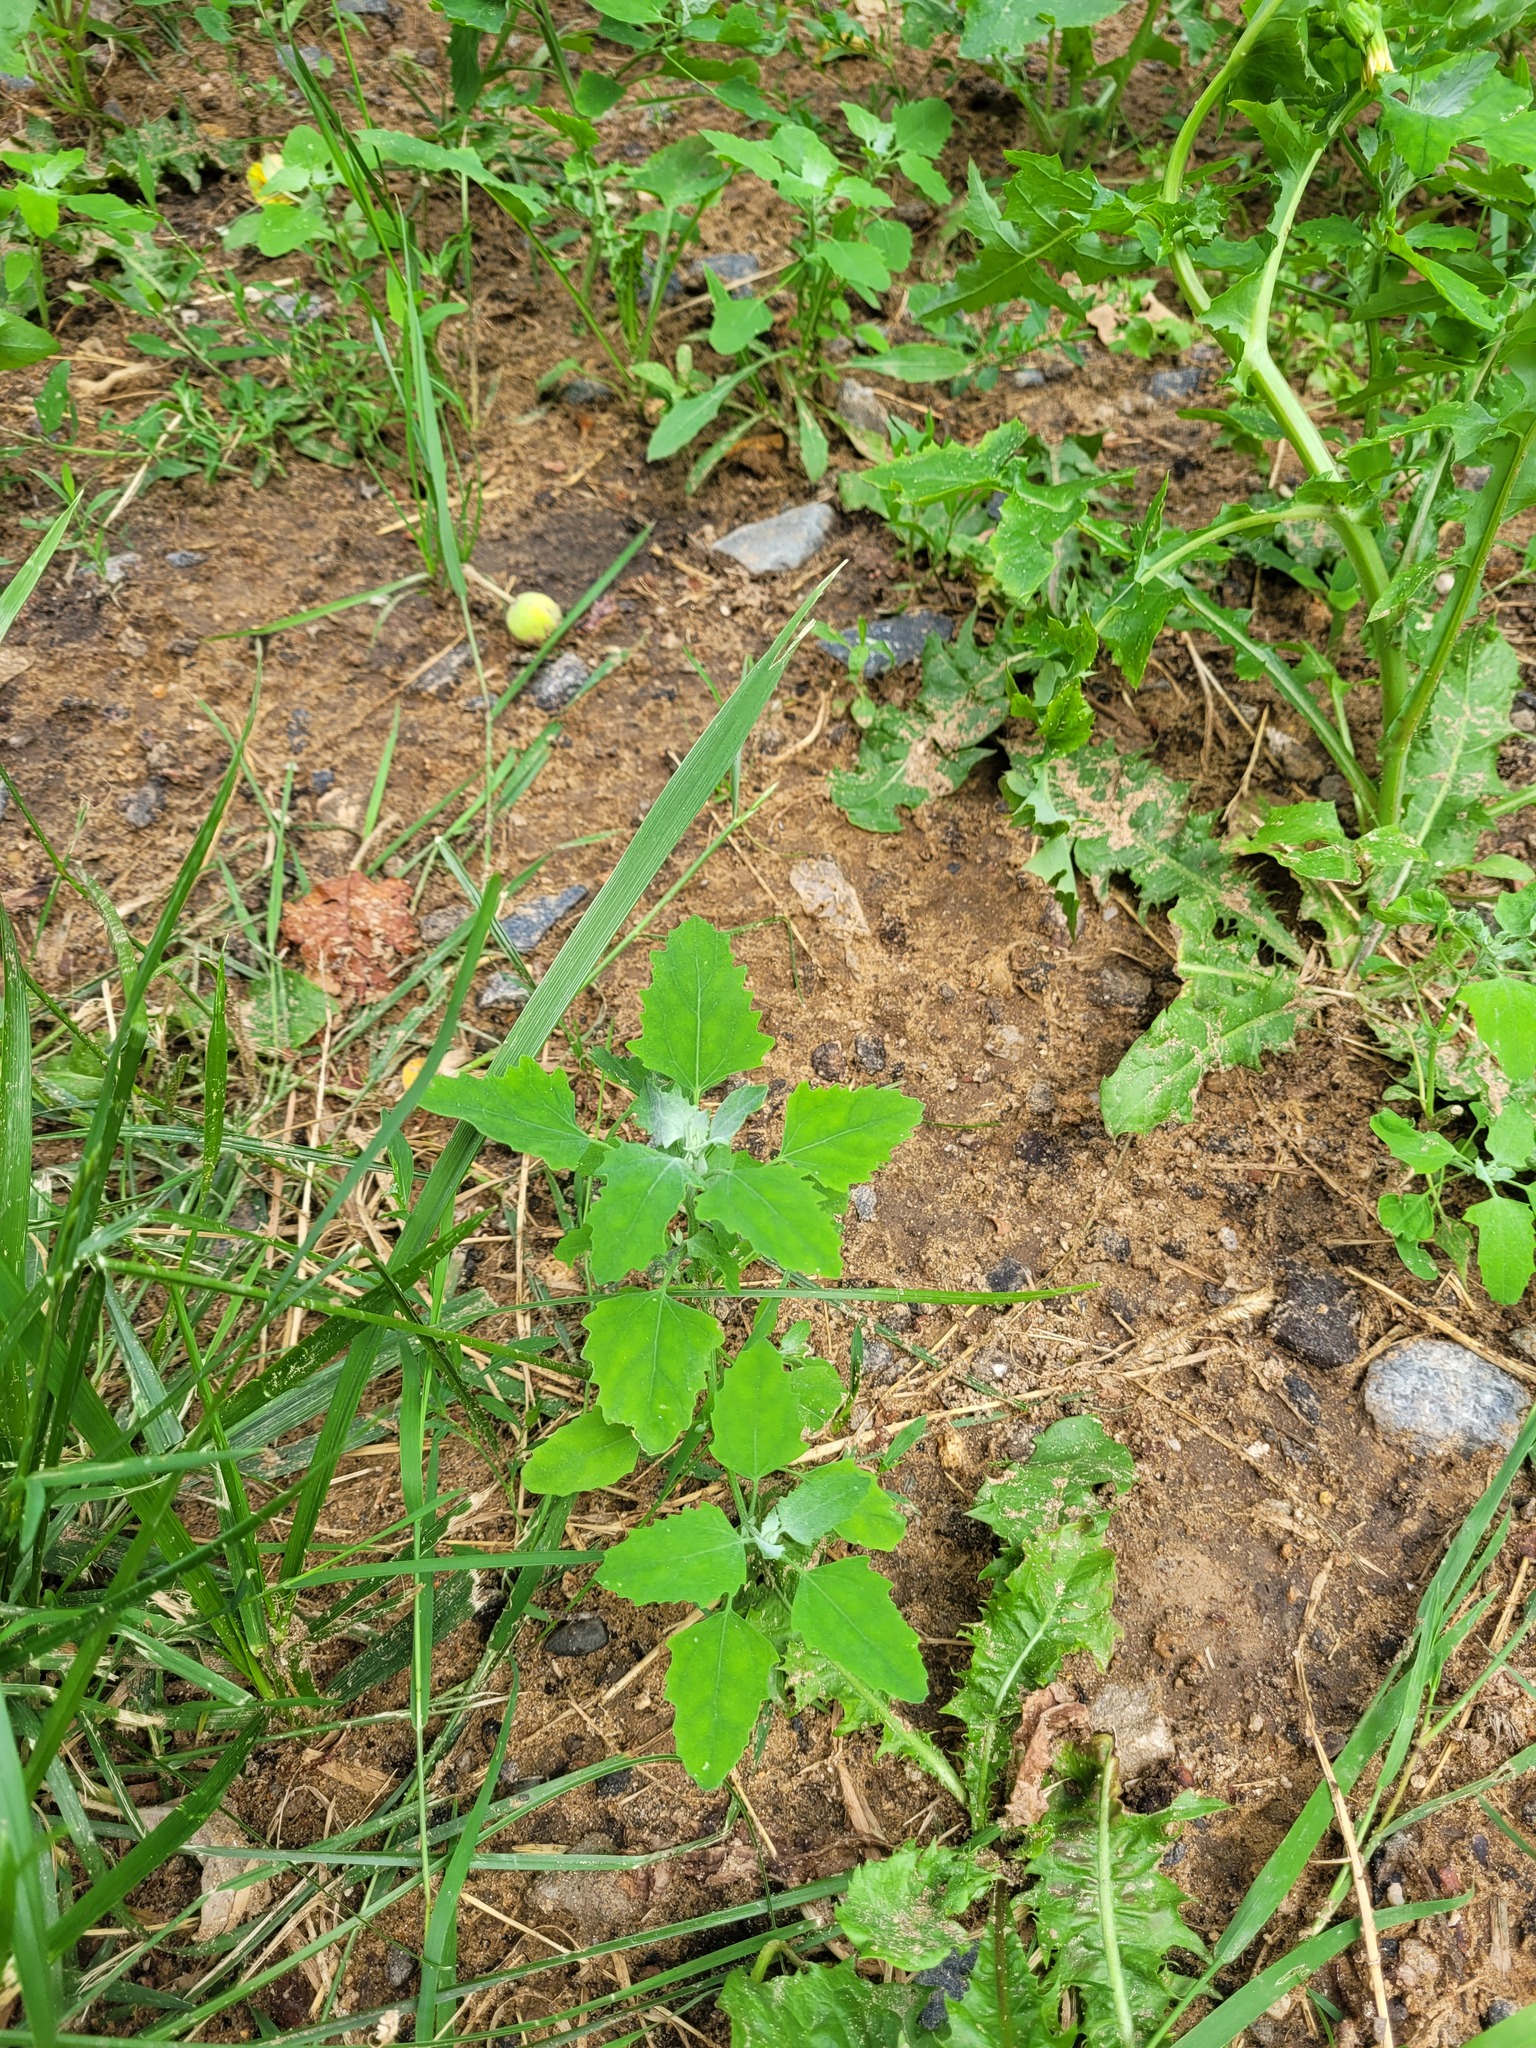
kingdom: Plantae
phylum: Tracheophyta
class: Magnoliopsida
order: Caryophyllales
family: Amaranthaceae
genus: Chenopodium
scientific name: Chenopodium album
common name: Fat-hen
